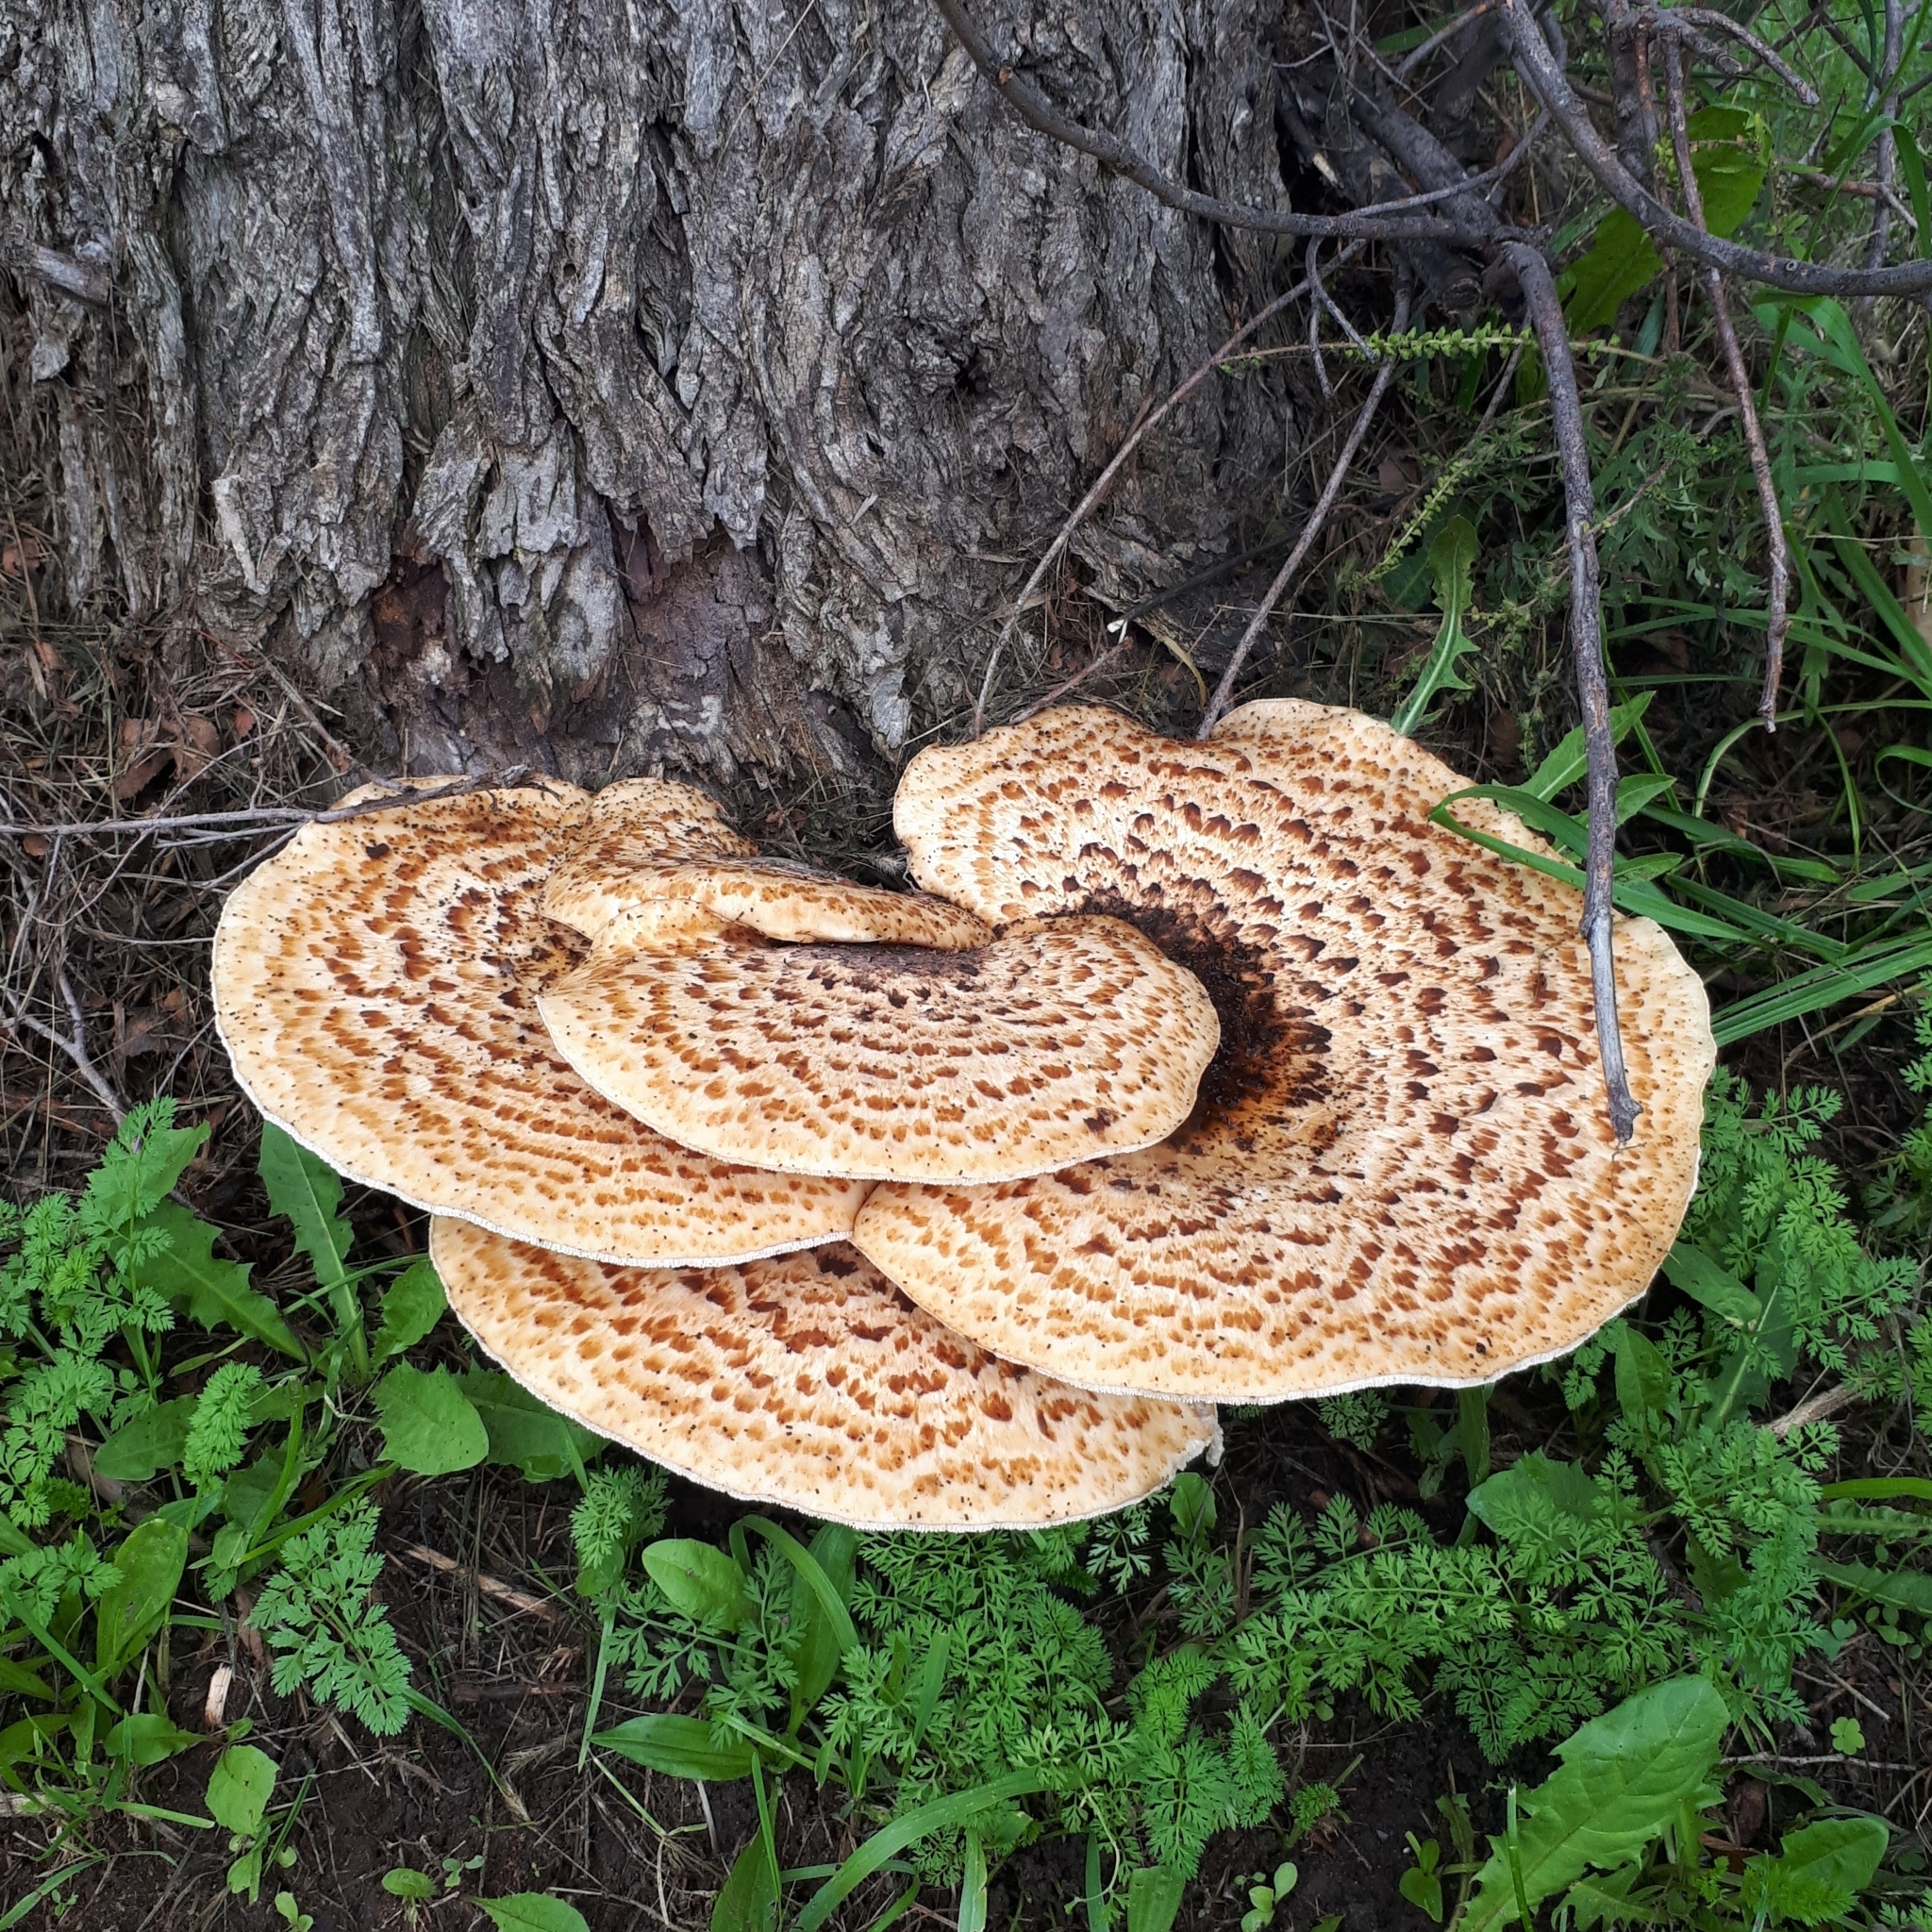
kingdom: Fungi
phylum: Basidiomycota
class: Agaricomycetes
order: Polyporales
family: Polyporaceae
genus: Cerioporus
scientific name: Cerioporus squamosus
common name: Dryad's saddle
